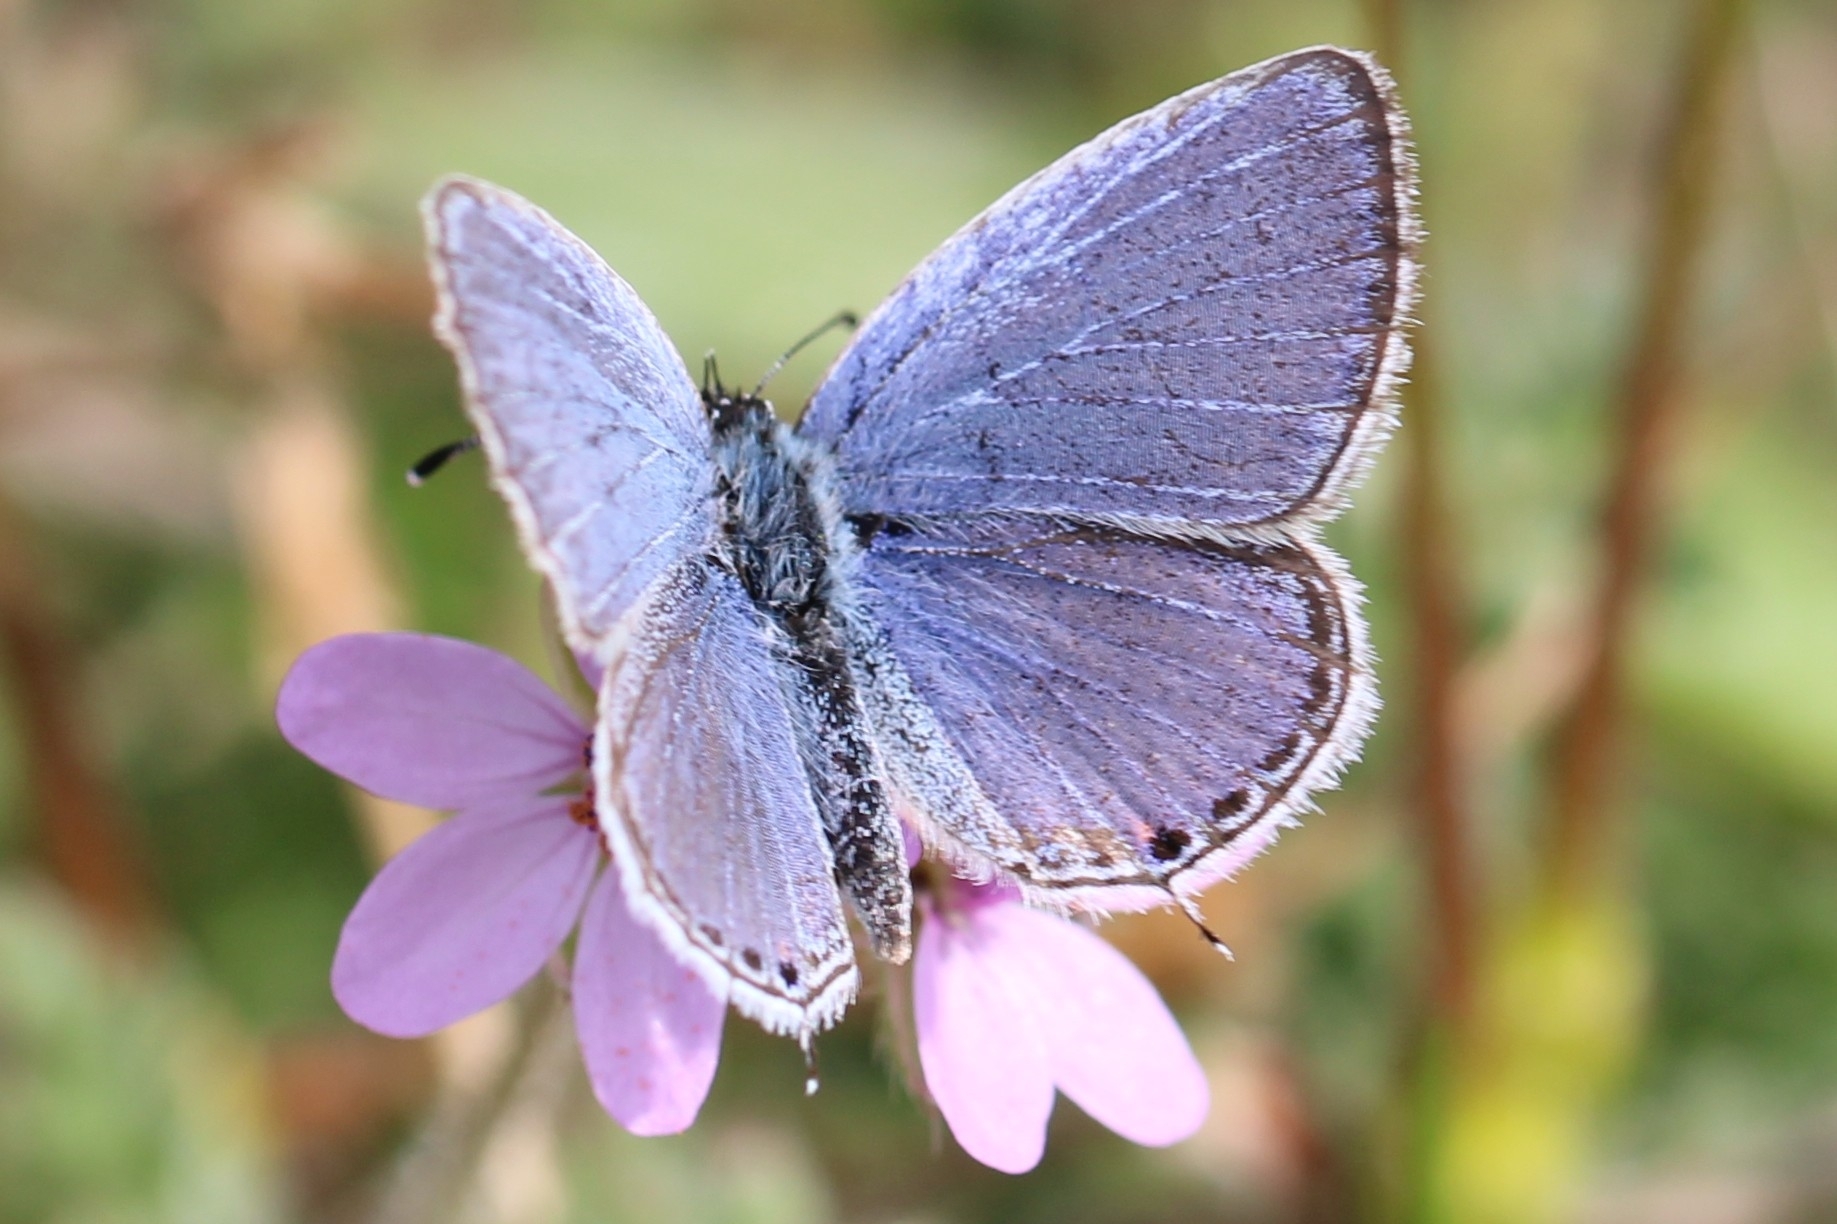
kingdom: Animalia
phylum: Arthropoda
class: Insecta
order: Lepidoptera
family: Lycaenidae
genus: Elkalyce
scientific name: Elkalyce comyntas
